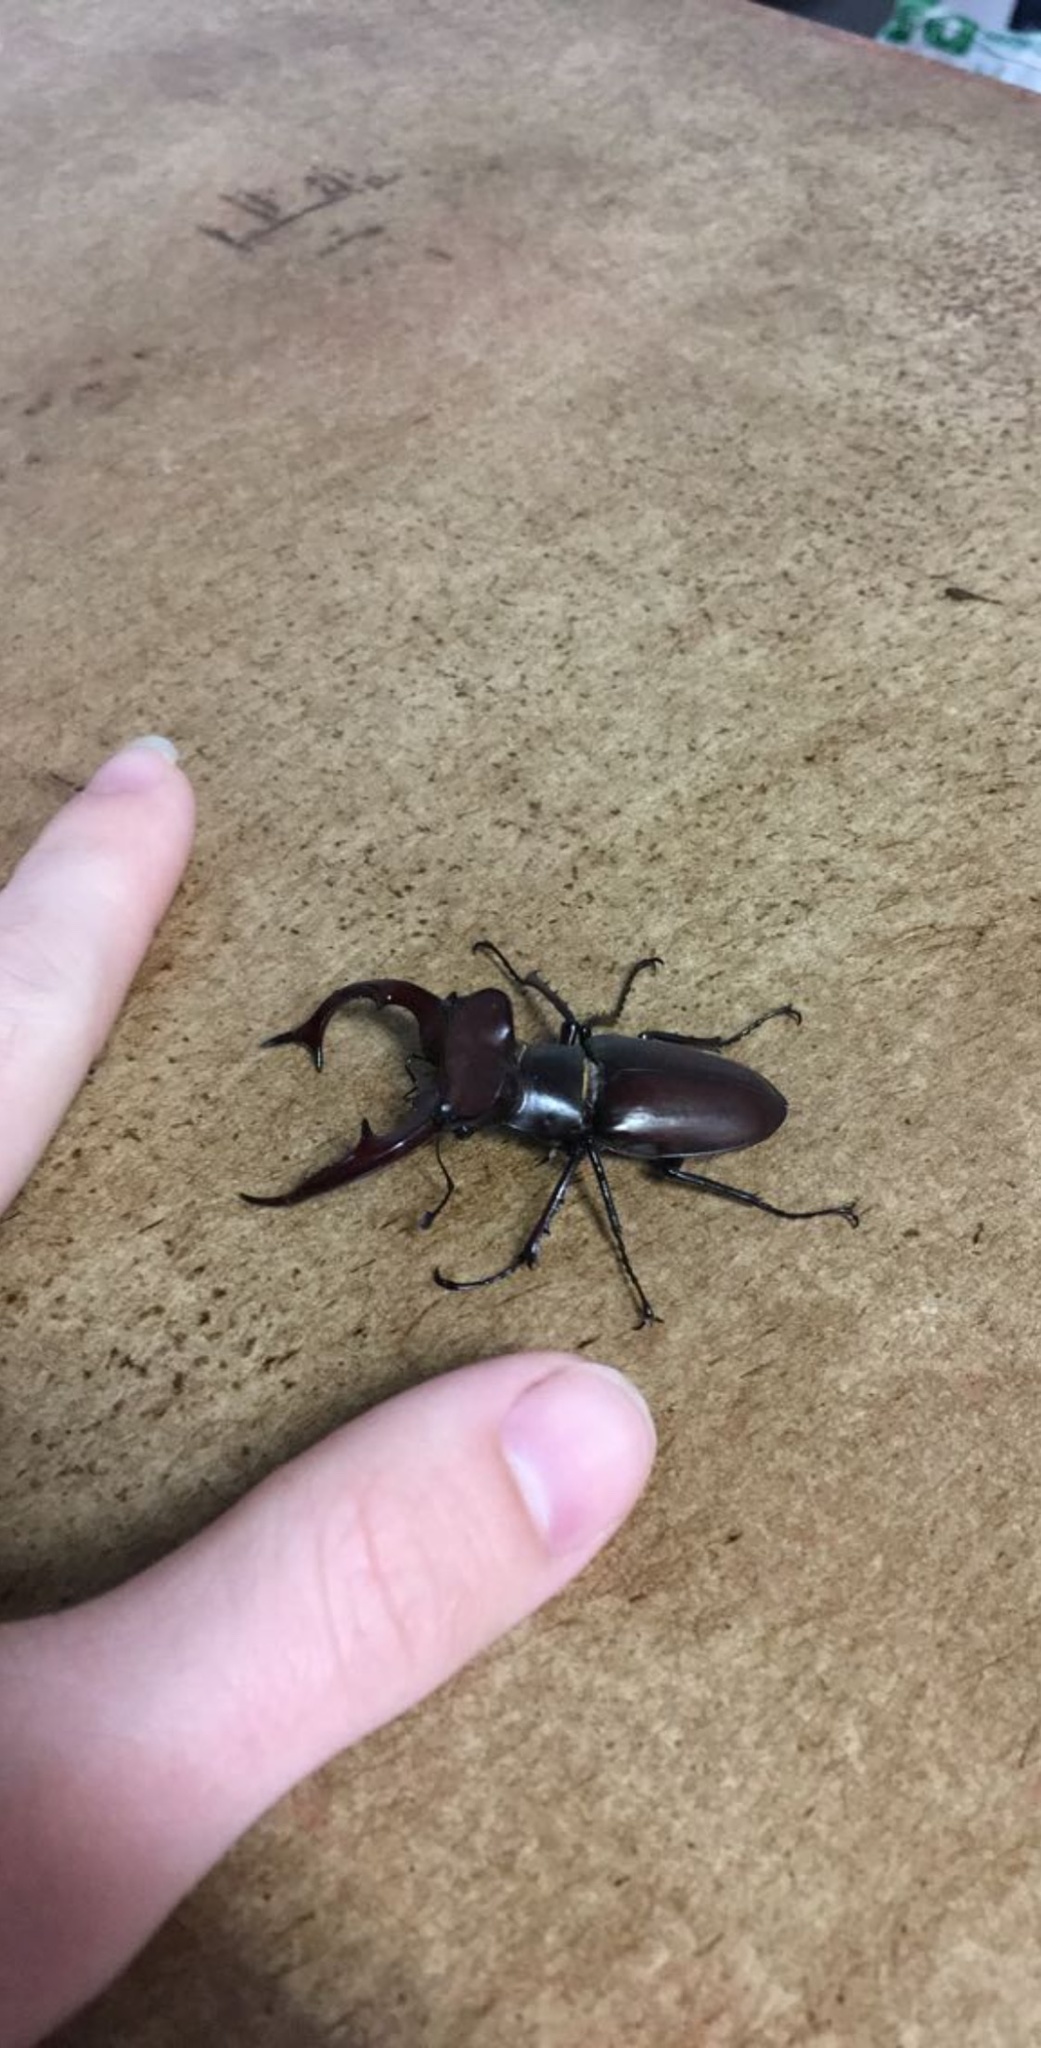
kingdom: Animalia
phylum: Arthropoda
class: Insecta
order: Coleoptera
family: Lucanidae
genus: Lucanus
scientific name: Lucanus elaphus
